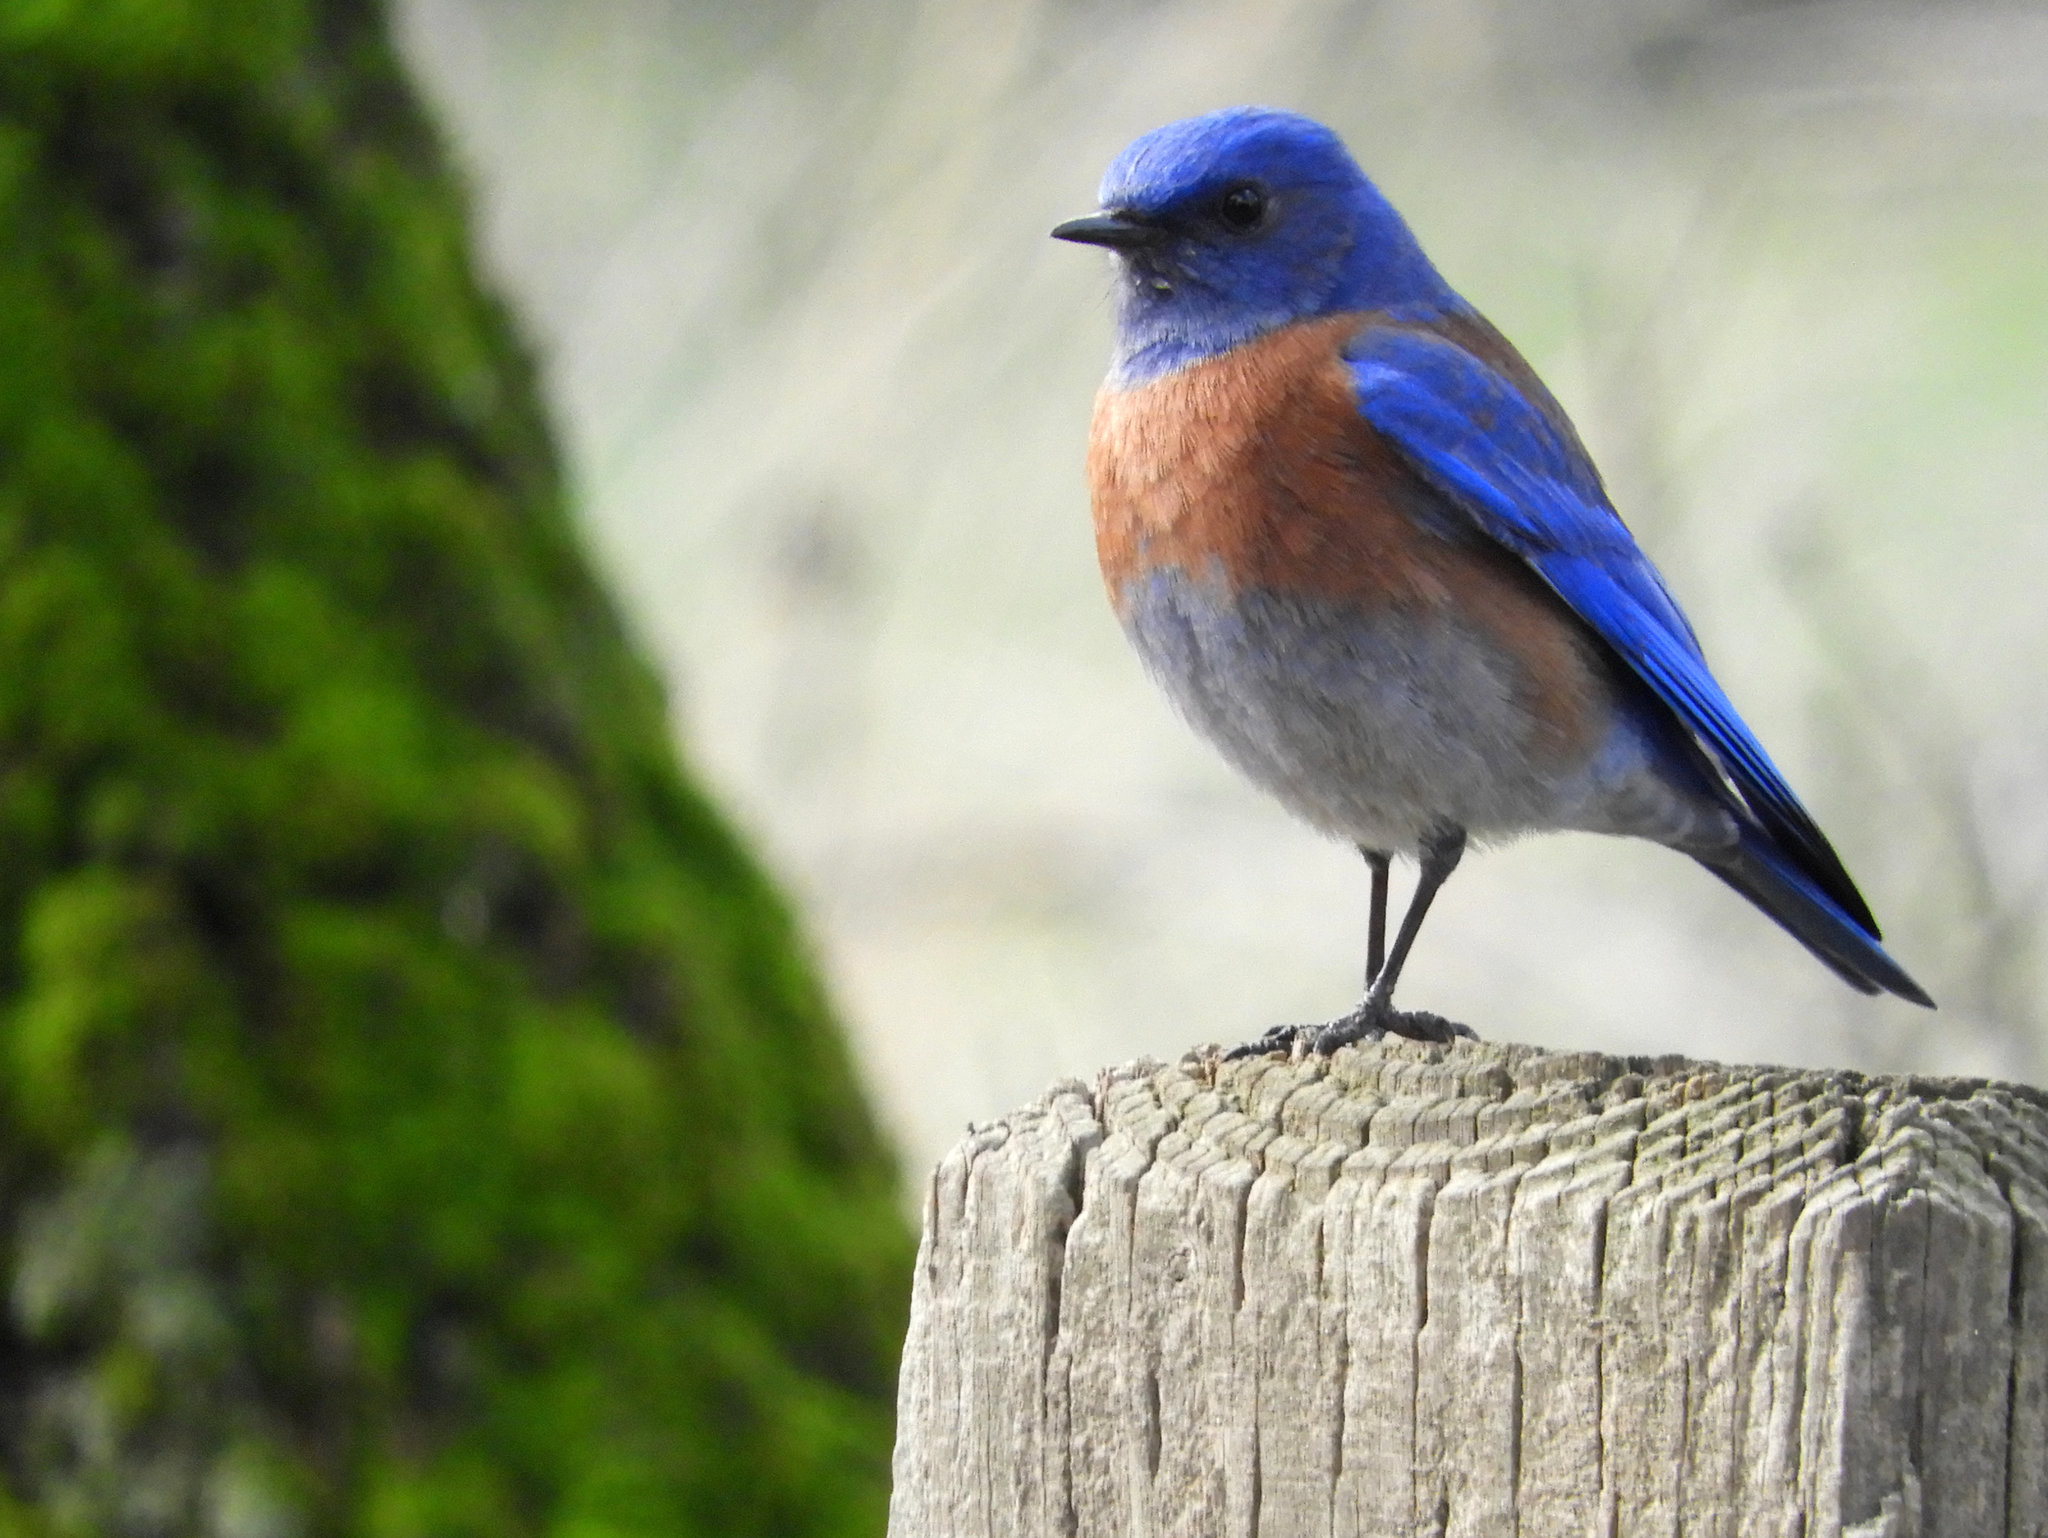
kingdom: Animalia
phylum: Chordata
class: Aves
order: Passeriformes
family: Turdidae
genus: Sialia
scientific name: Sialia mexicana
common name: Western bluebird
